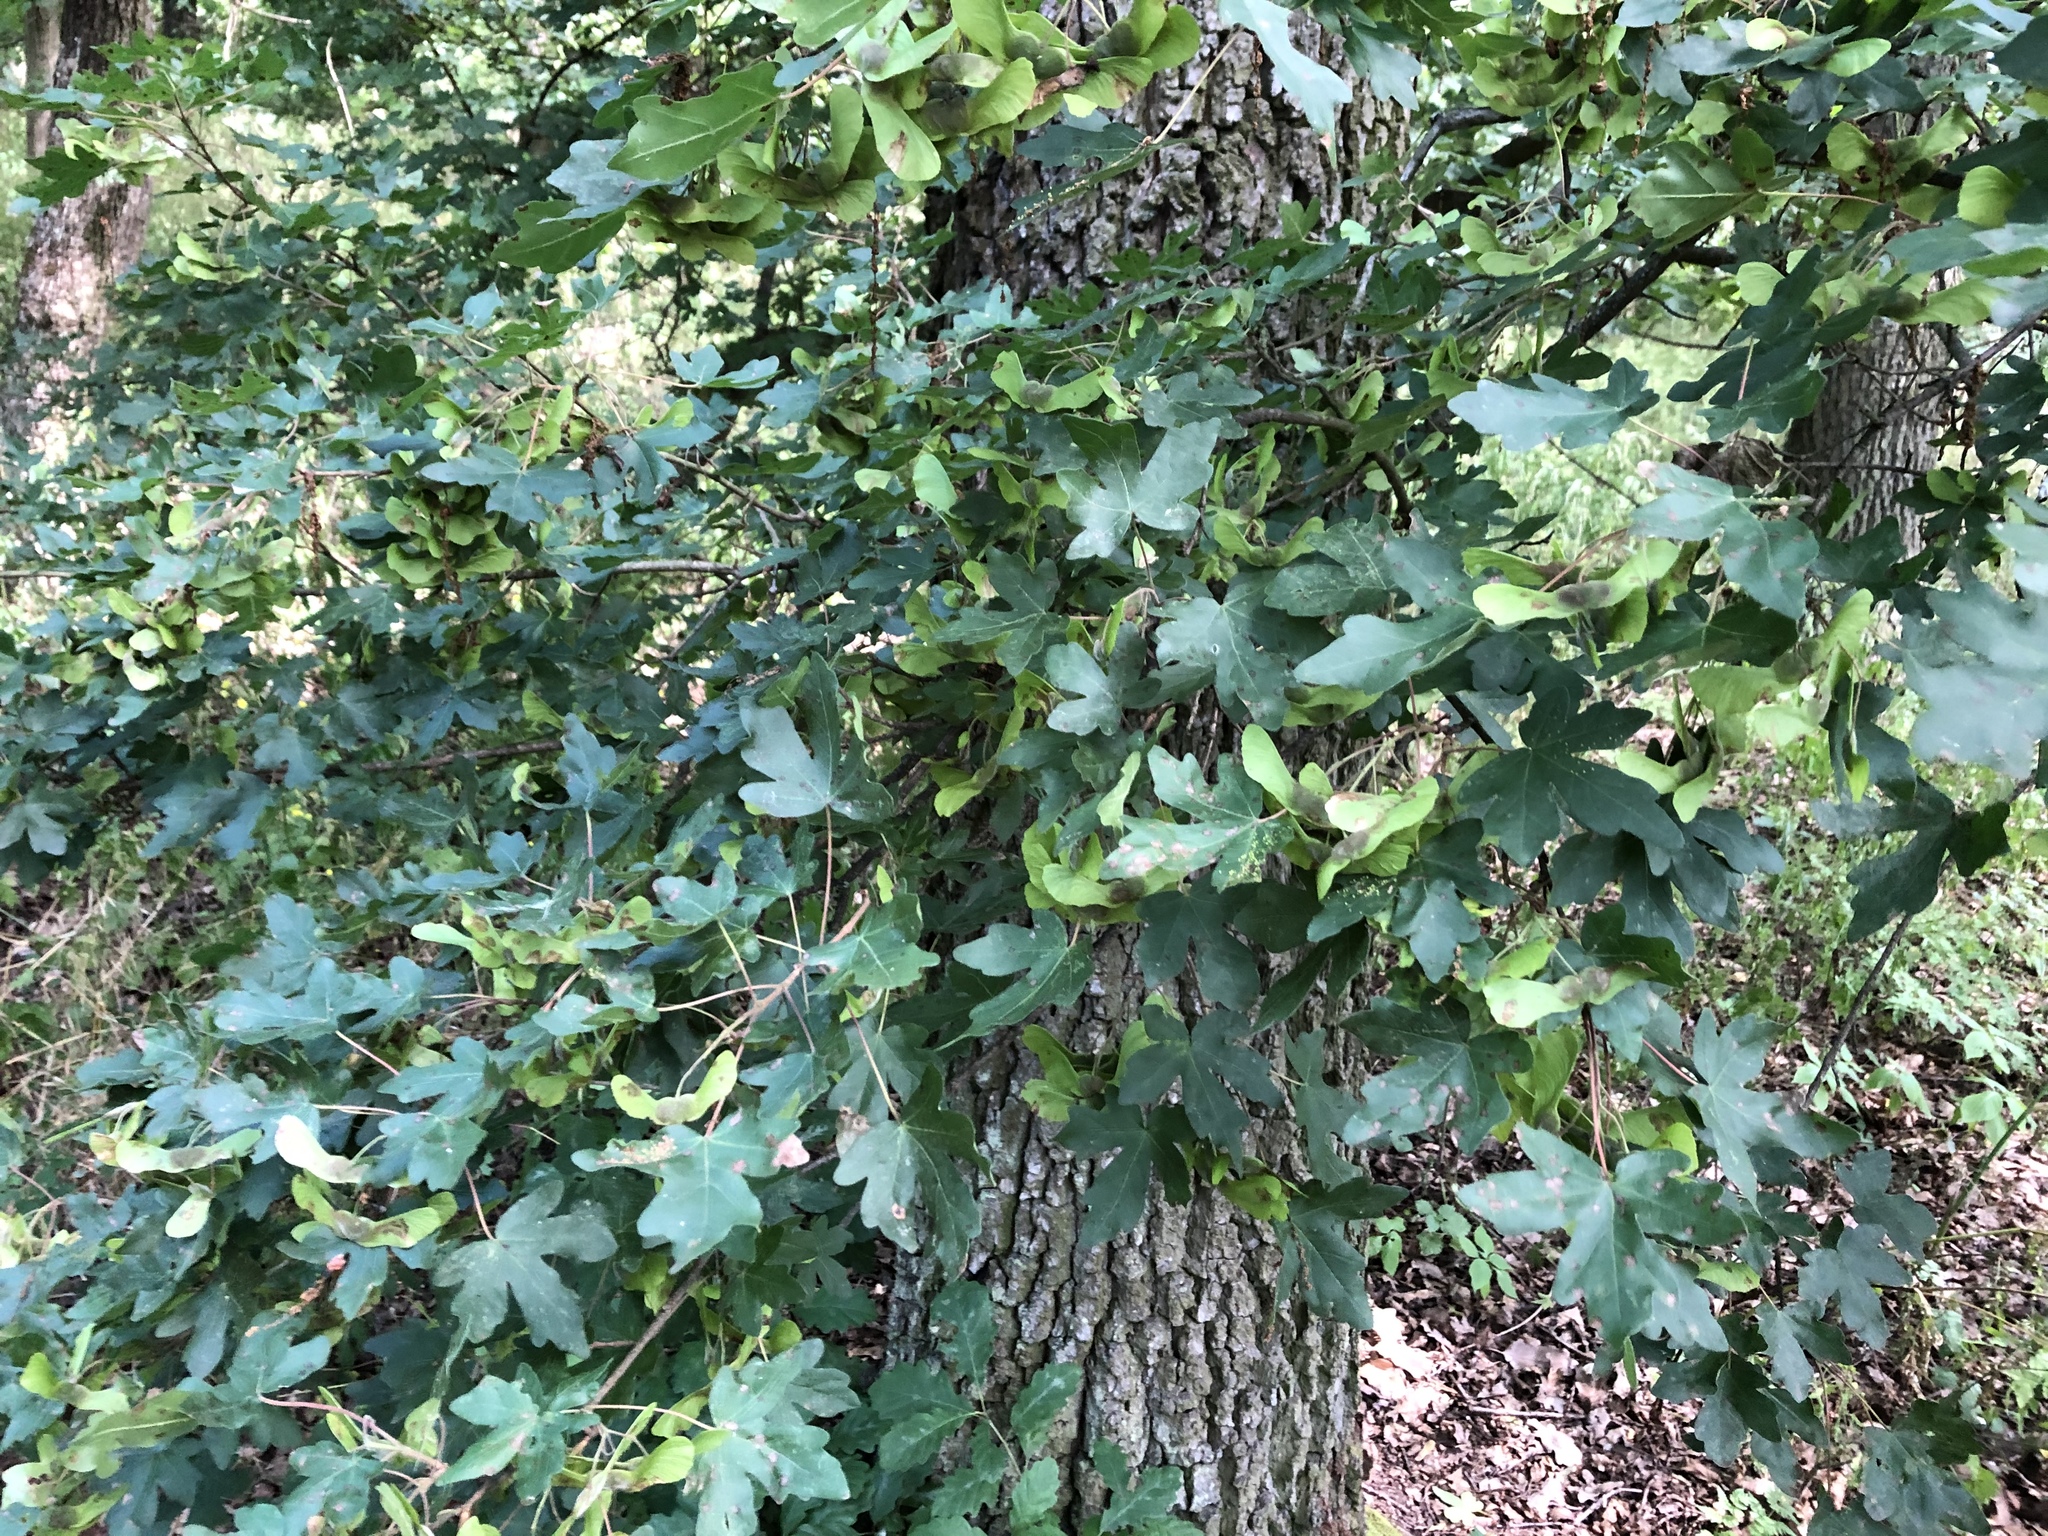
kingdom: Plantae
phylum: Tracheophyta
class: Magnoliopsida
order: Sapindales
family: Sapindaceae
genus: Acer
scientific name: Acer campestre
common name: Field maple
